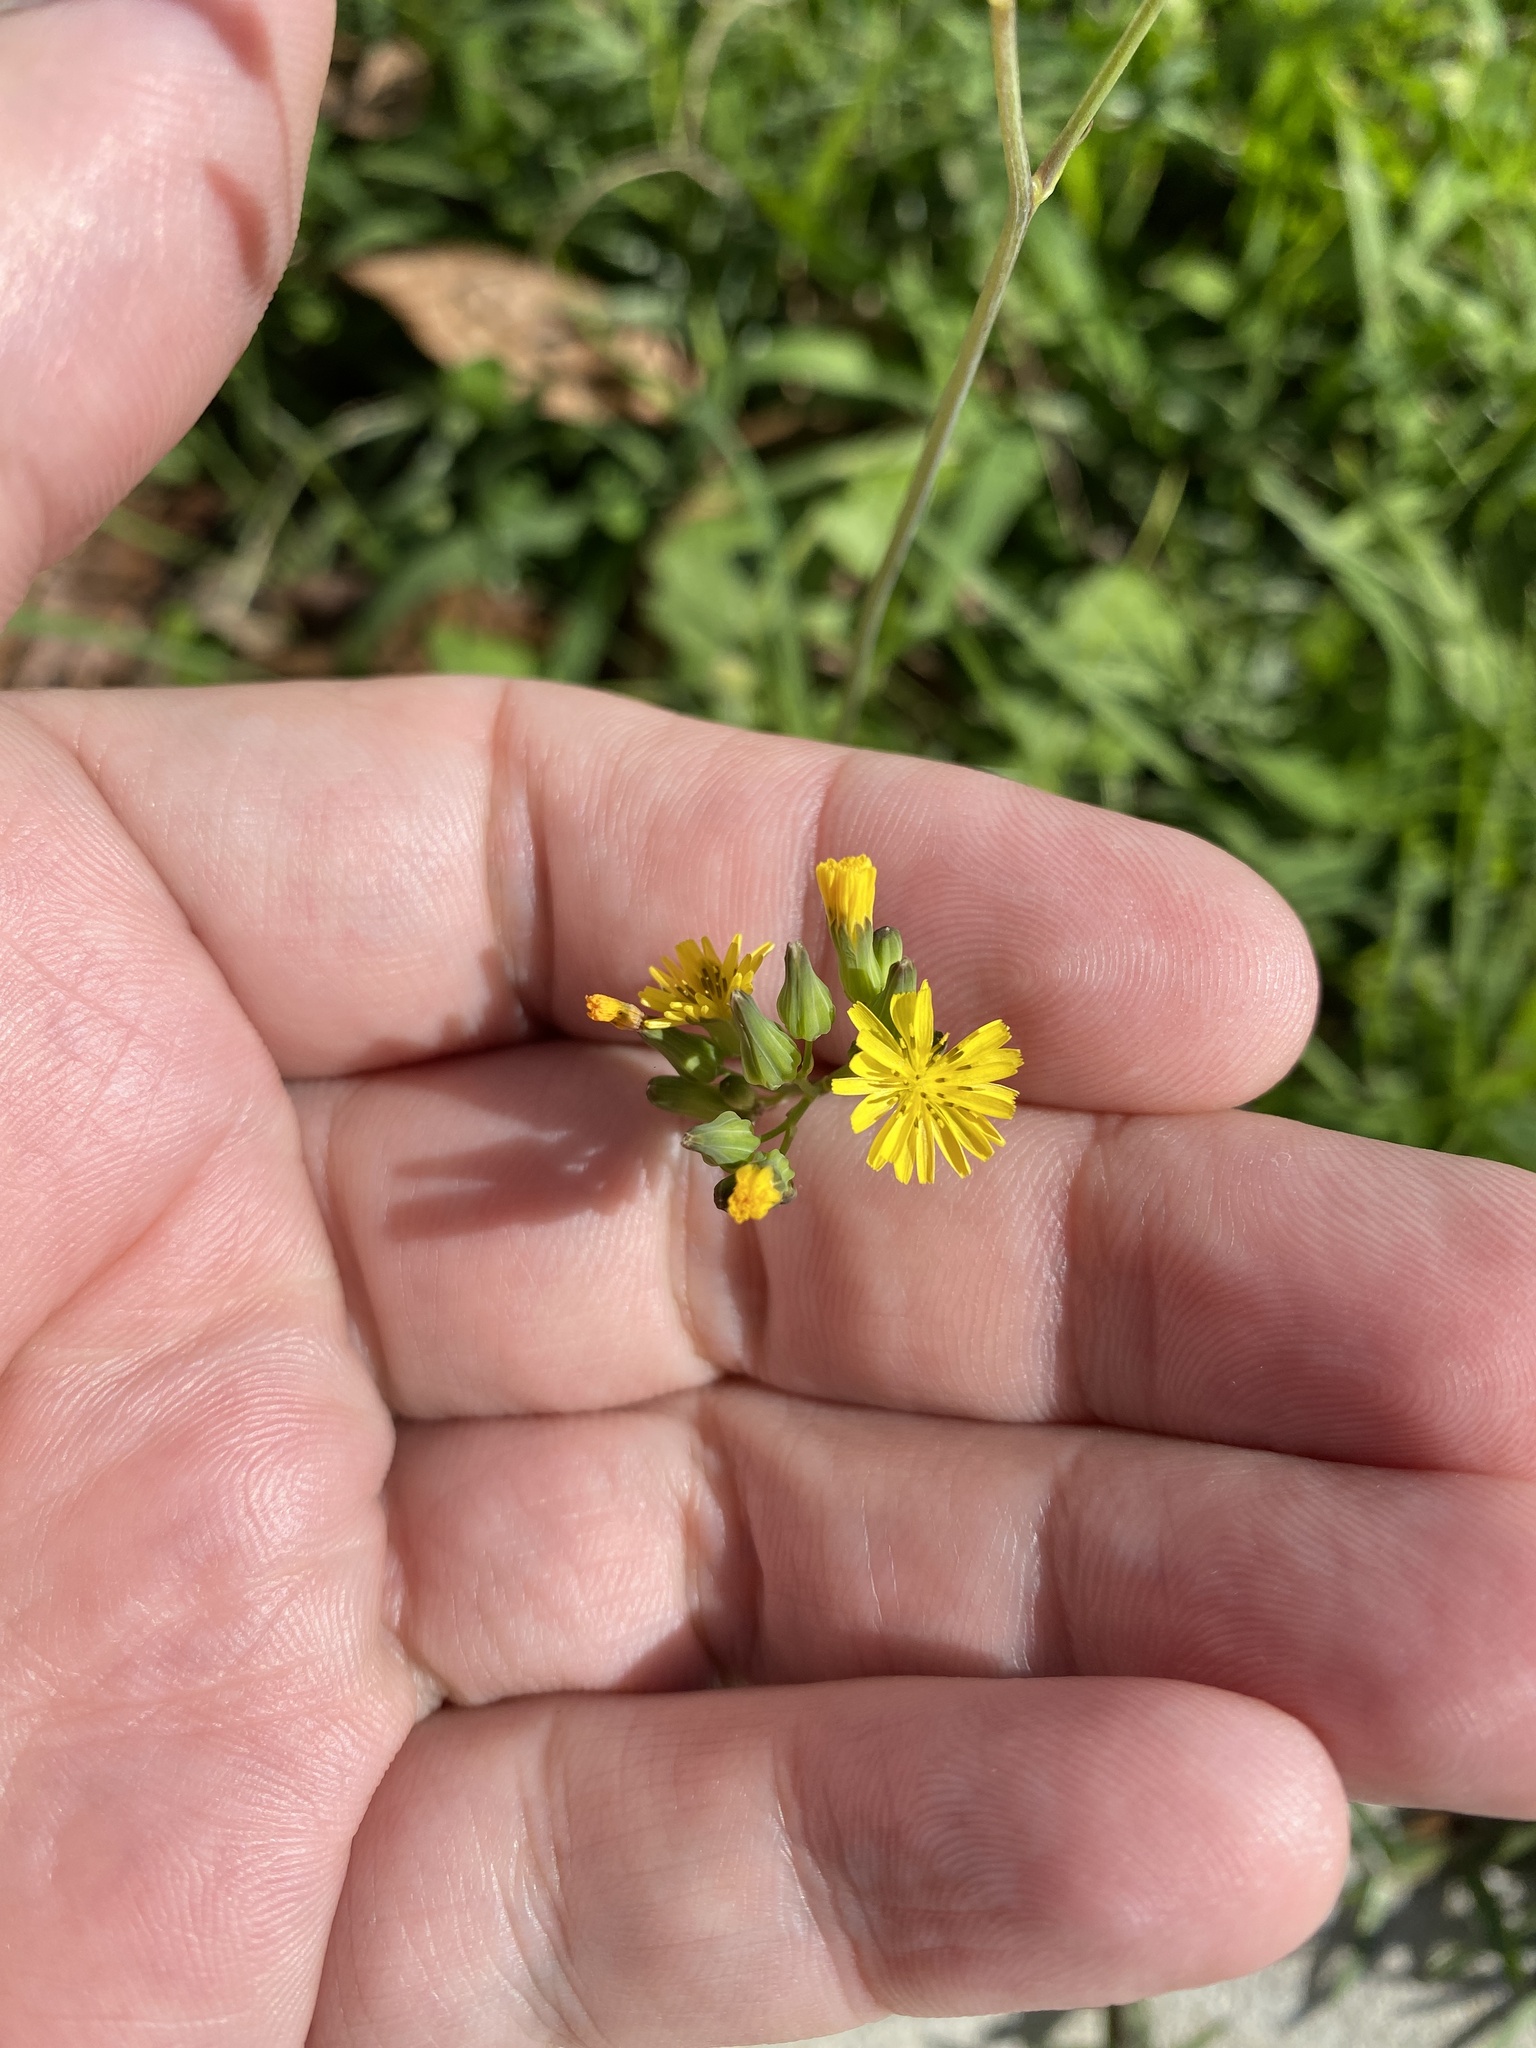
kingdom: Plantae
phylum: Tracheophyta
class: Magnoliopsida
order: Asterales
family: Asteraceae
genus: Youngia
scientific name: Youngia japonica
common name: Oriental false hawksbeard
